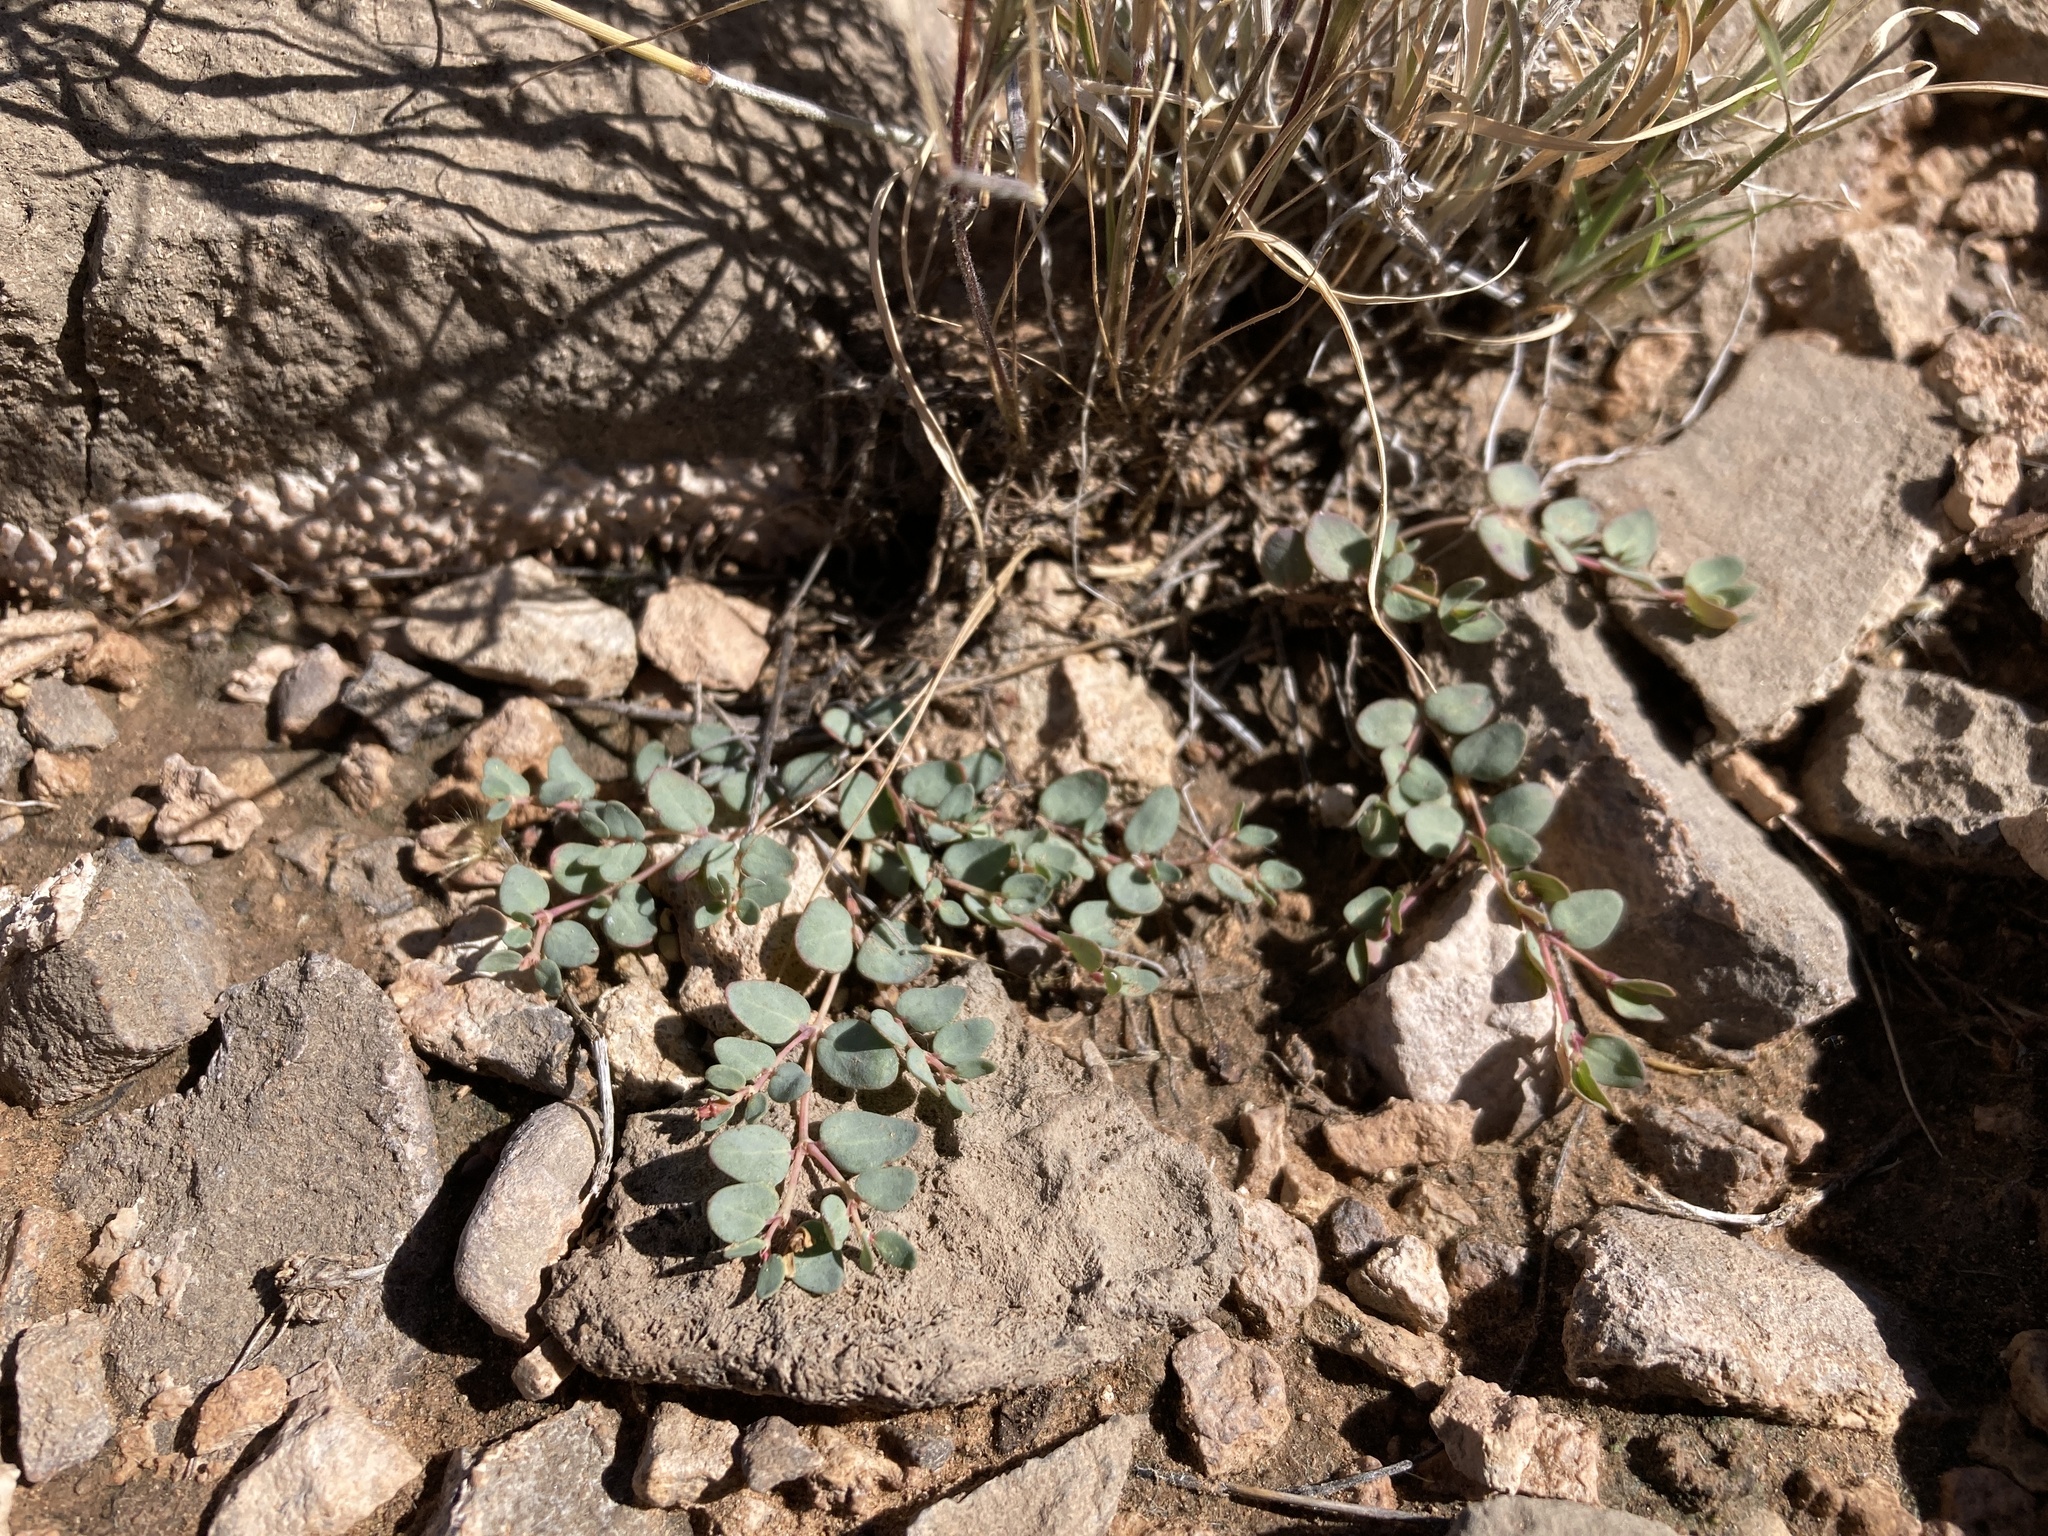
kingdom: Plantae
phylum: Tracheophyta
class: Magnoliopsida
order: Malpighiales
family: Euphorbiaceae
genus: Euphorbia
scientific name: Euphorbia fendleri
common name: Fendler's euphorbia
